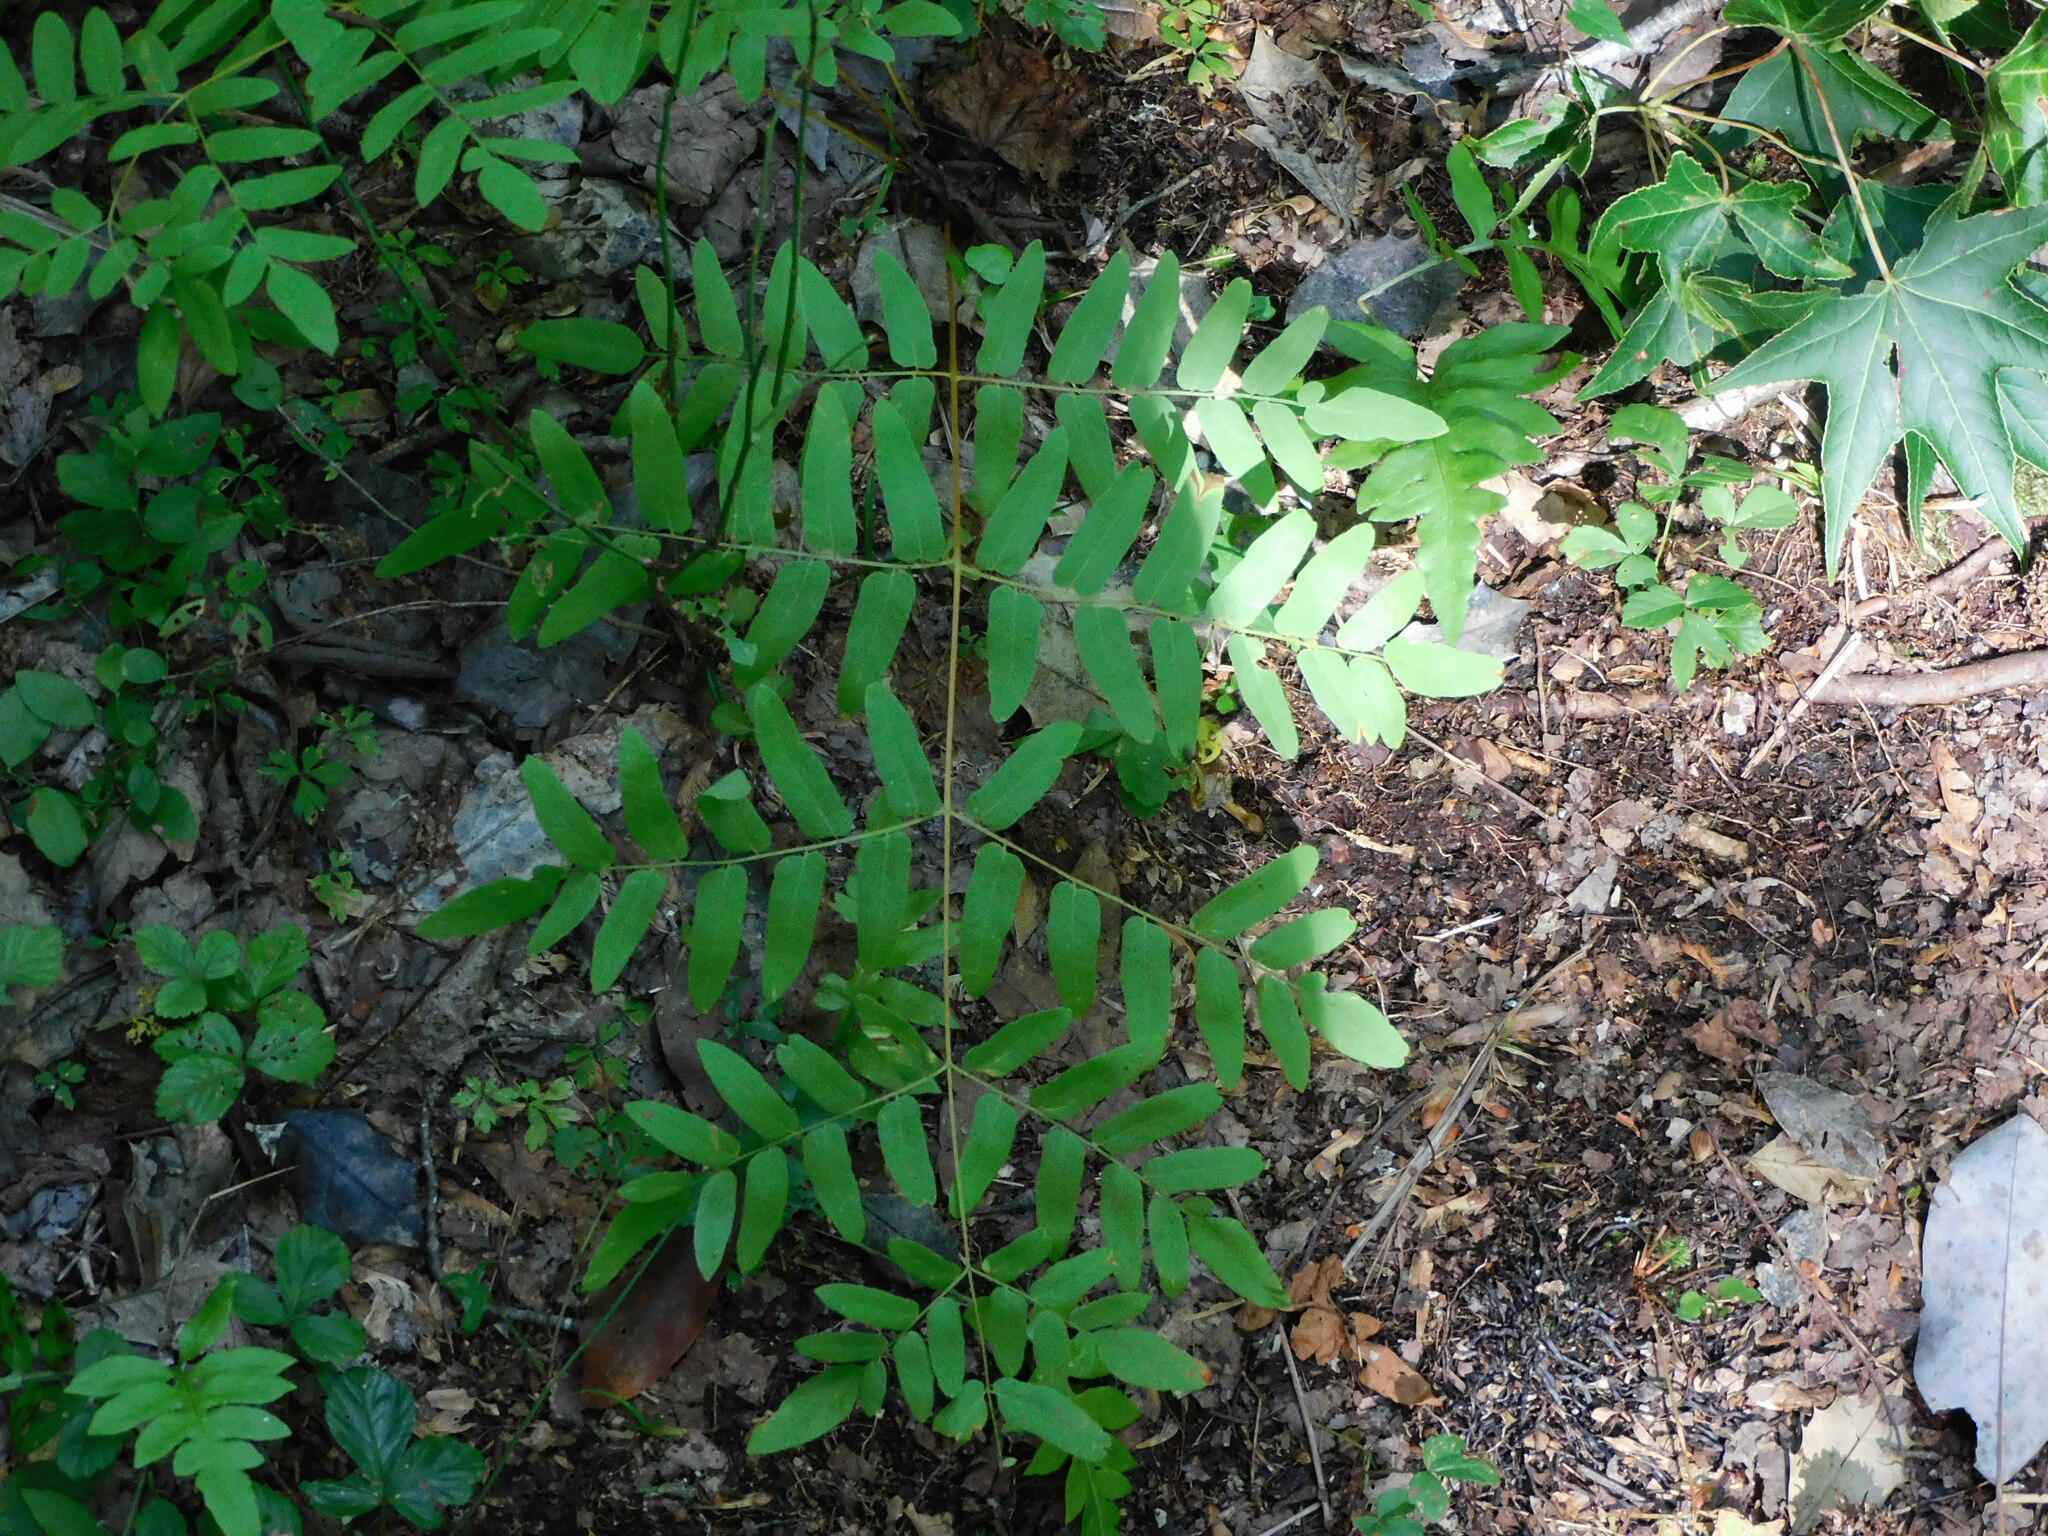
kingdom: Plantae
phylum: Tracheophyta
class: Polypodiopsida
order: Osmundales
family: Osmundaceae
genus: Osmunda
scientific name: Osmunda spectabilis
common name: American royal fern
